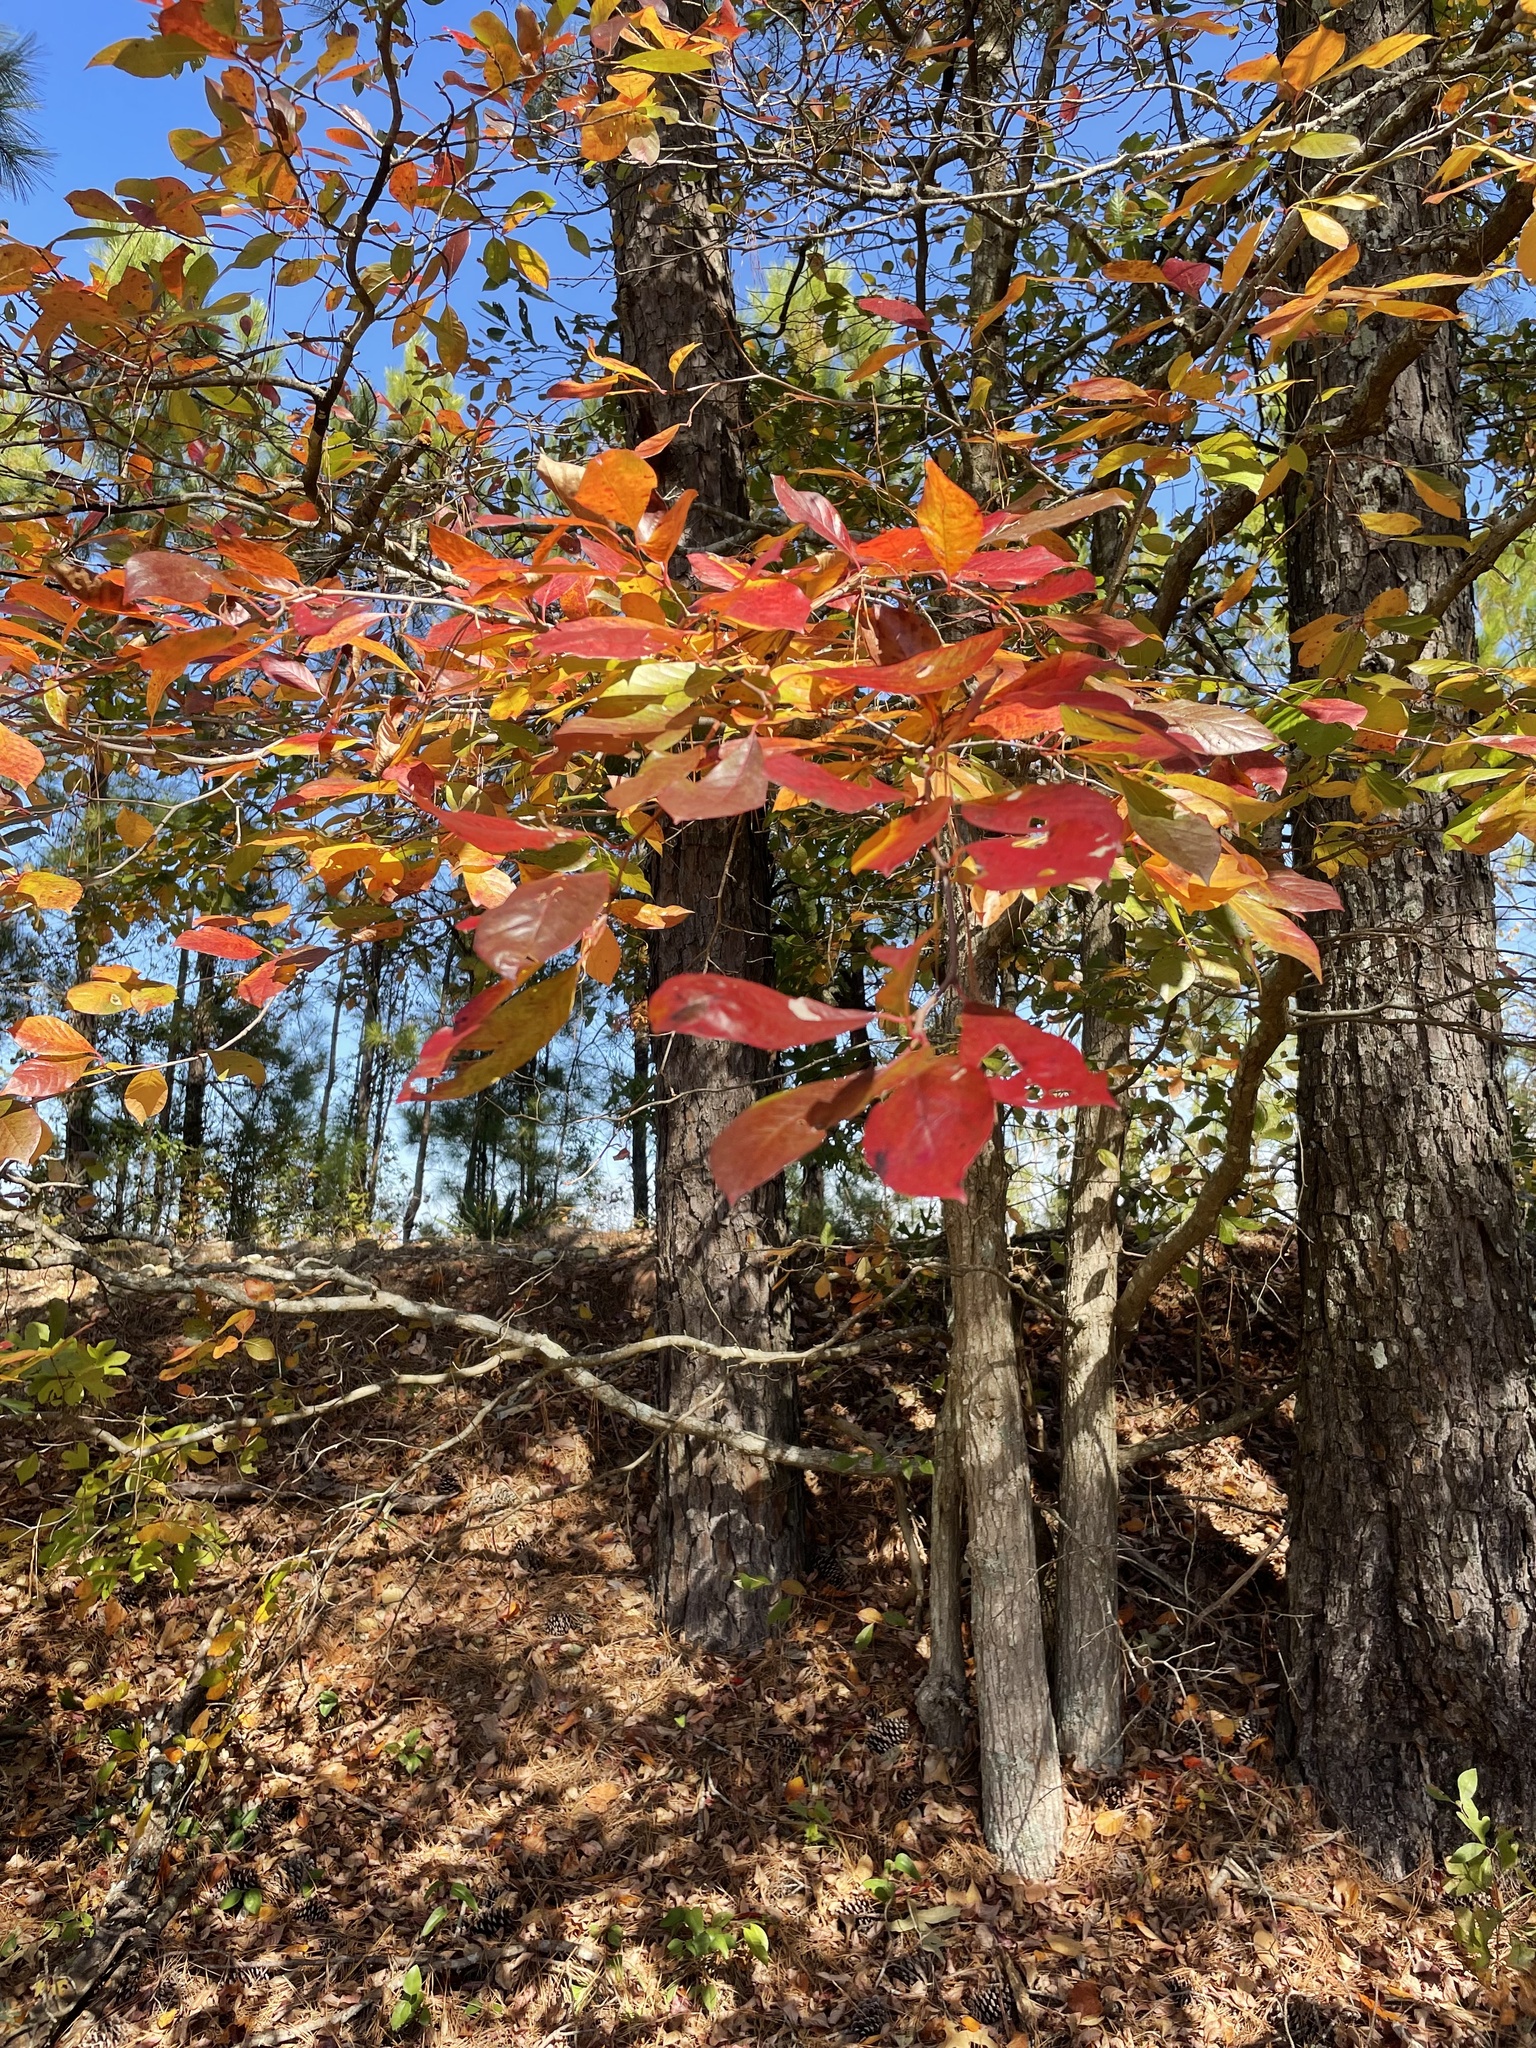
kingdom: Plantae
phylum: Tracheophyta
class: Magnoliopsida
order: Cornales
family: Nyssaceae
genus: Nyssa
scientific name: Nyssa sylvatica
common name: Black tupelo
